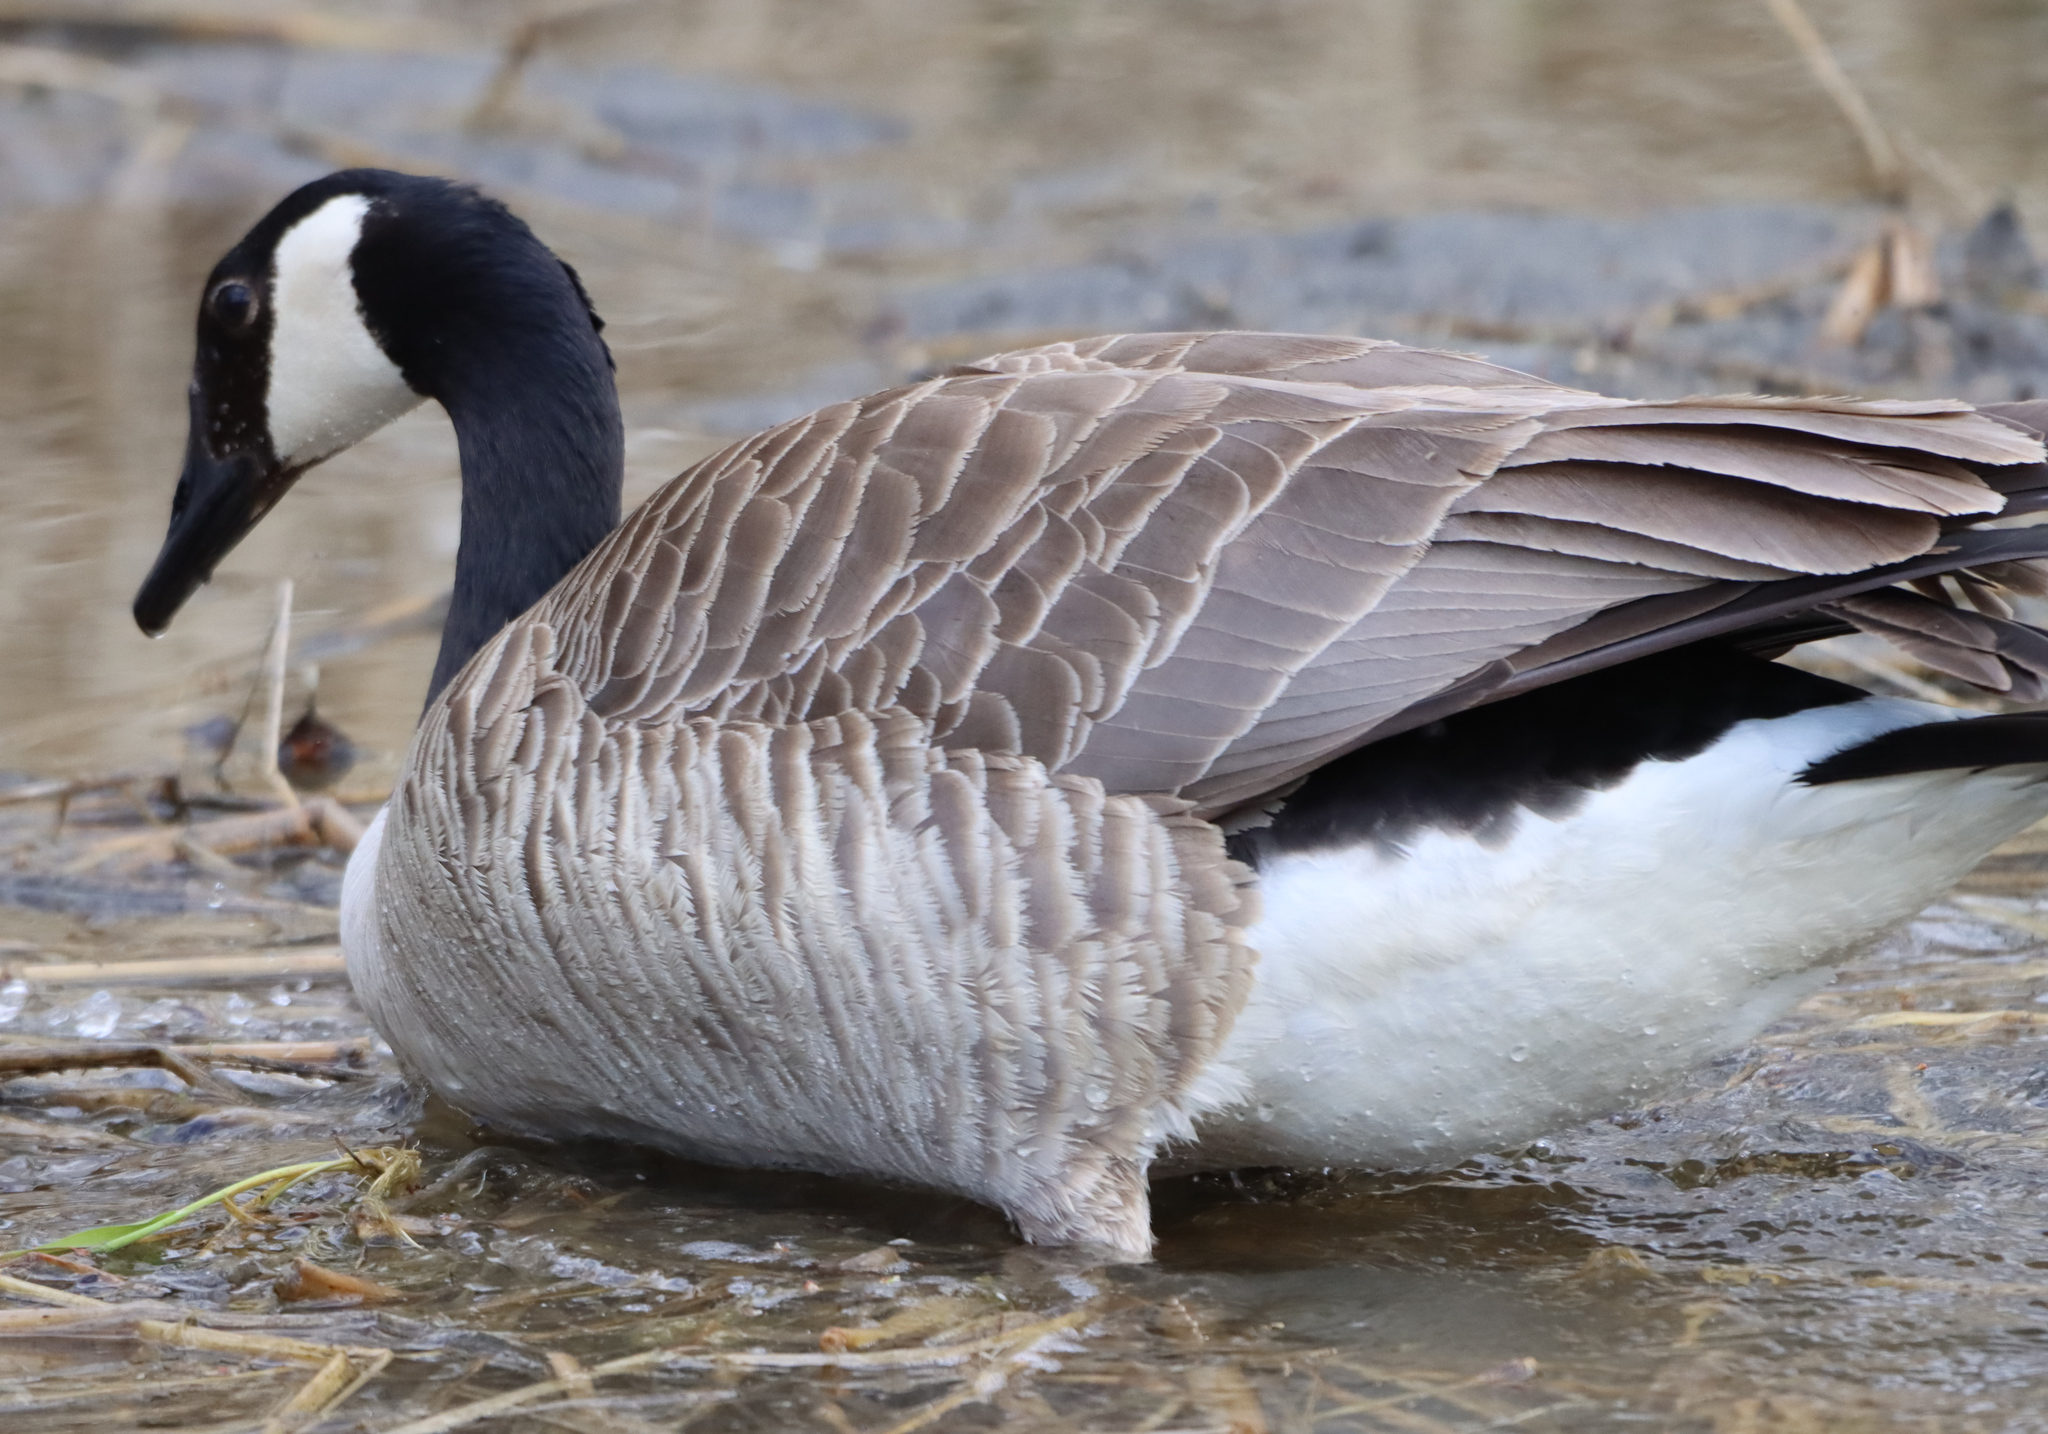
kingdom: Animalia
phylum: Chordata
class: Aves
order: Anseriformes
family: Anatidae
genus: Branta
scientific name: Branta canadensis
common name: Canada goose
